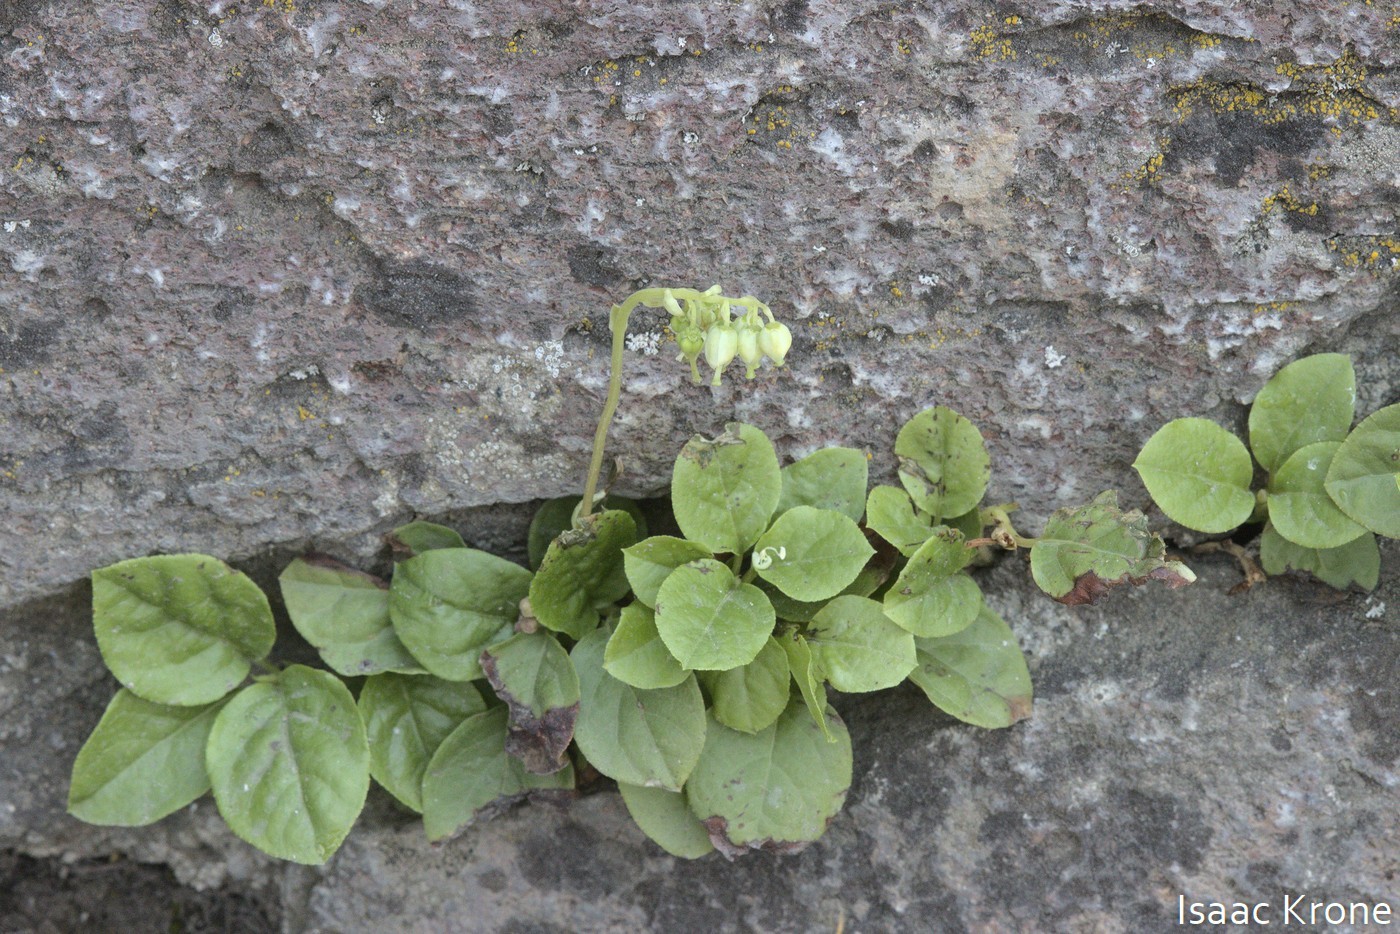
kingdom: Plantae
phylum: Tracheophyta
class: Magnoliopsida
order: Ericales
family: Ericaceae
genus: Orthilia
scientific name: Orthilia secunda
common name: One-sided orthilia
